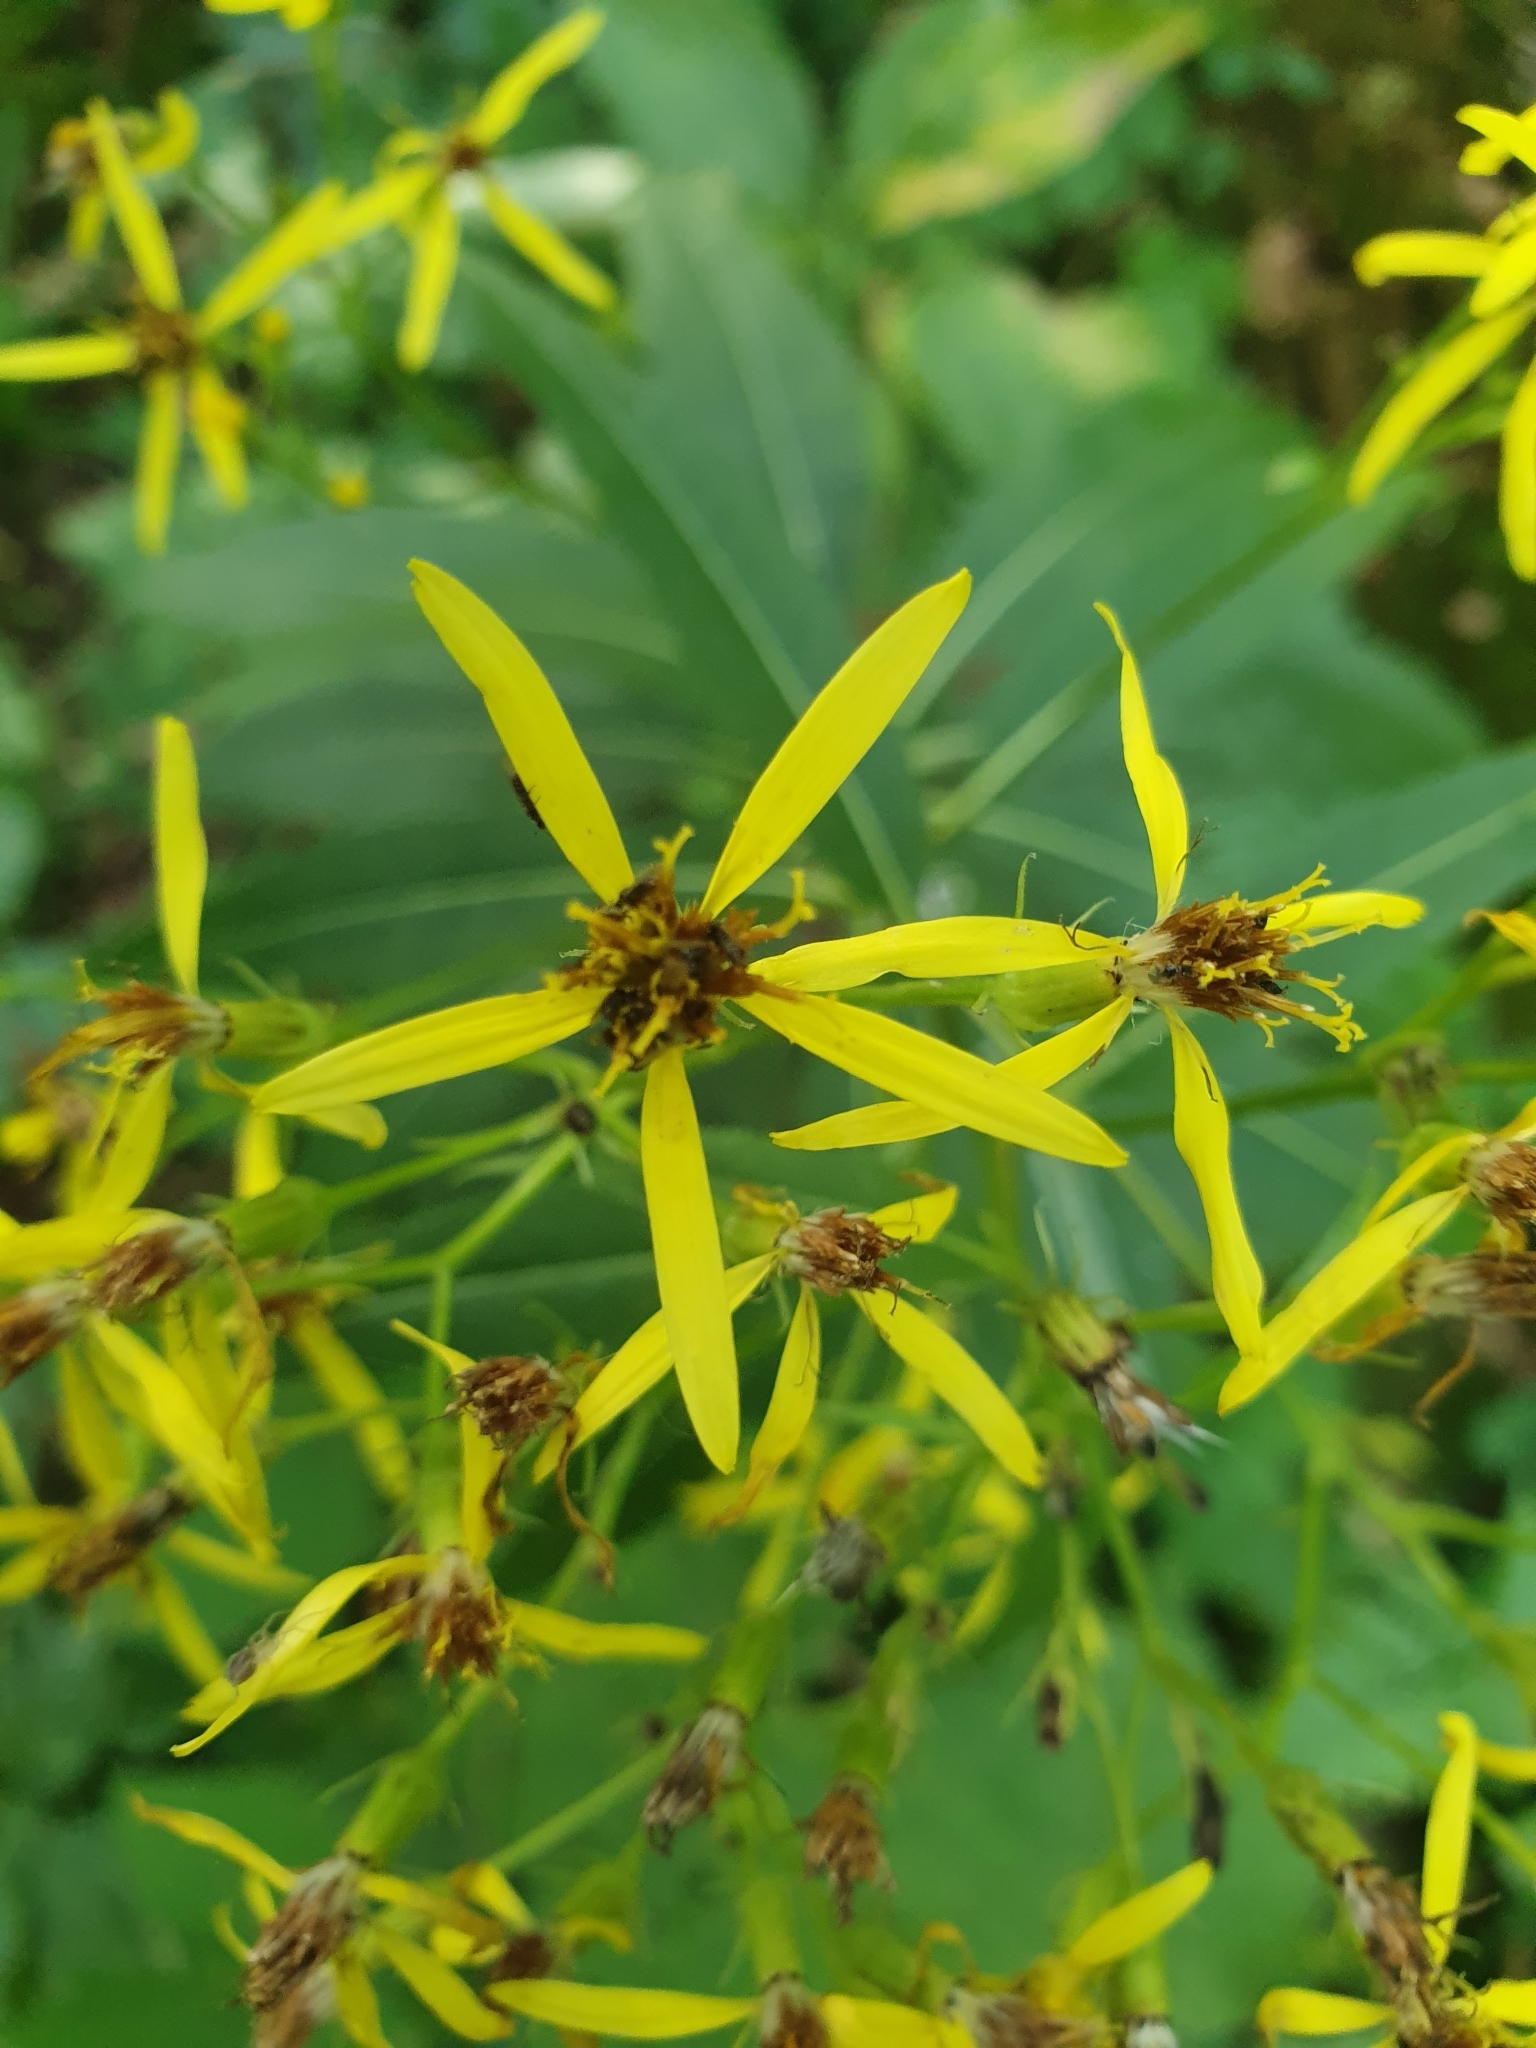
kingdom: Plantae
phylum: Tracheophyta
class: Magnoliopsida
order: Asterales
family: Asteraceae
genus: Senecio
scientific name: Senecio ovatus
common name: Wood ragwort
